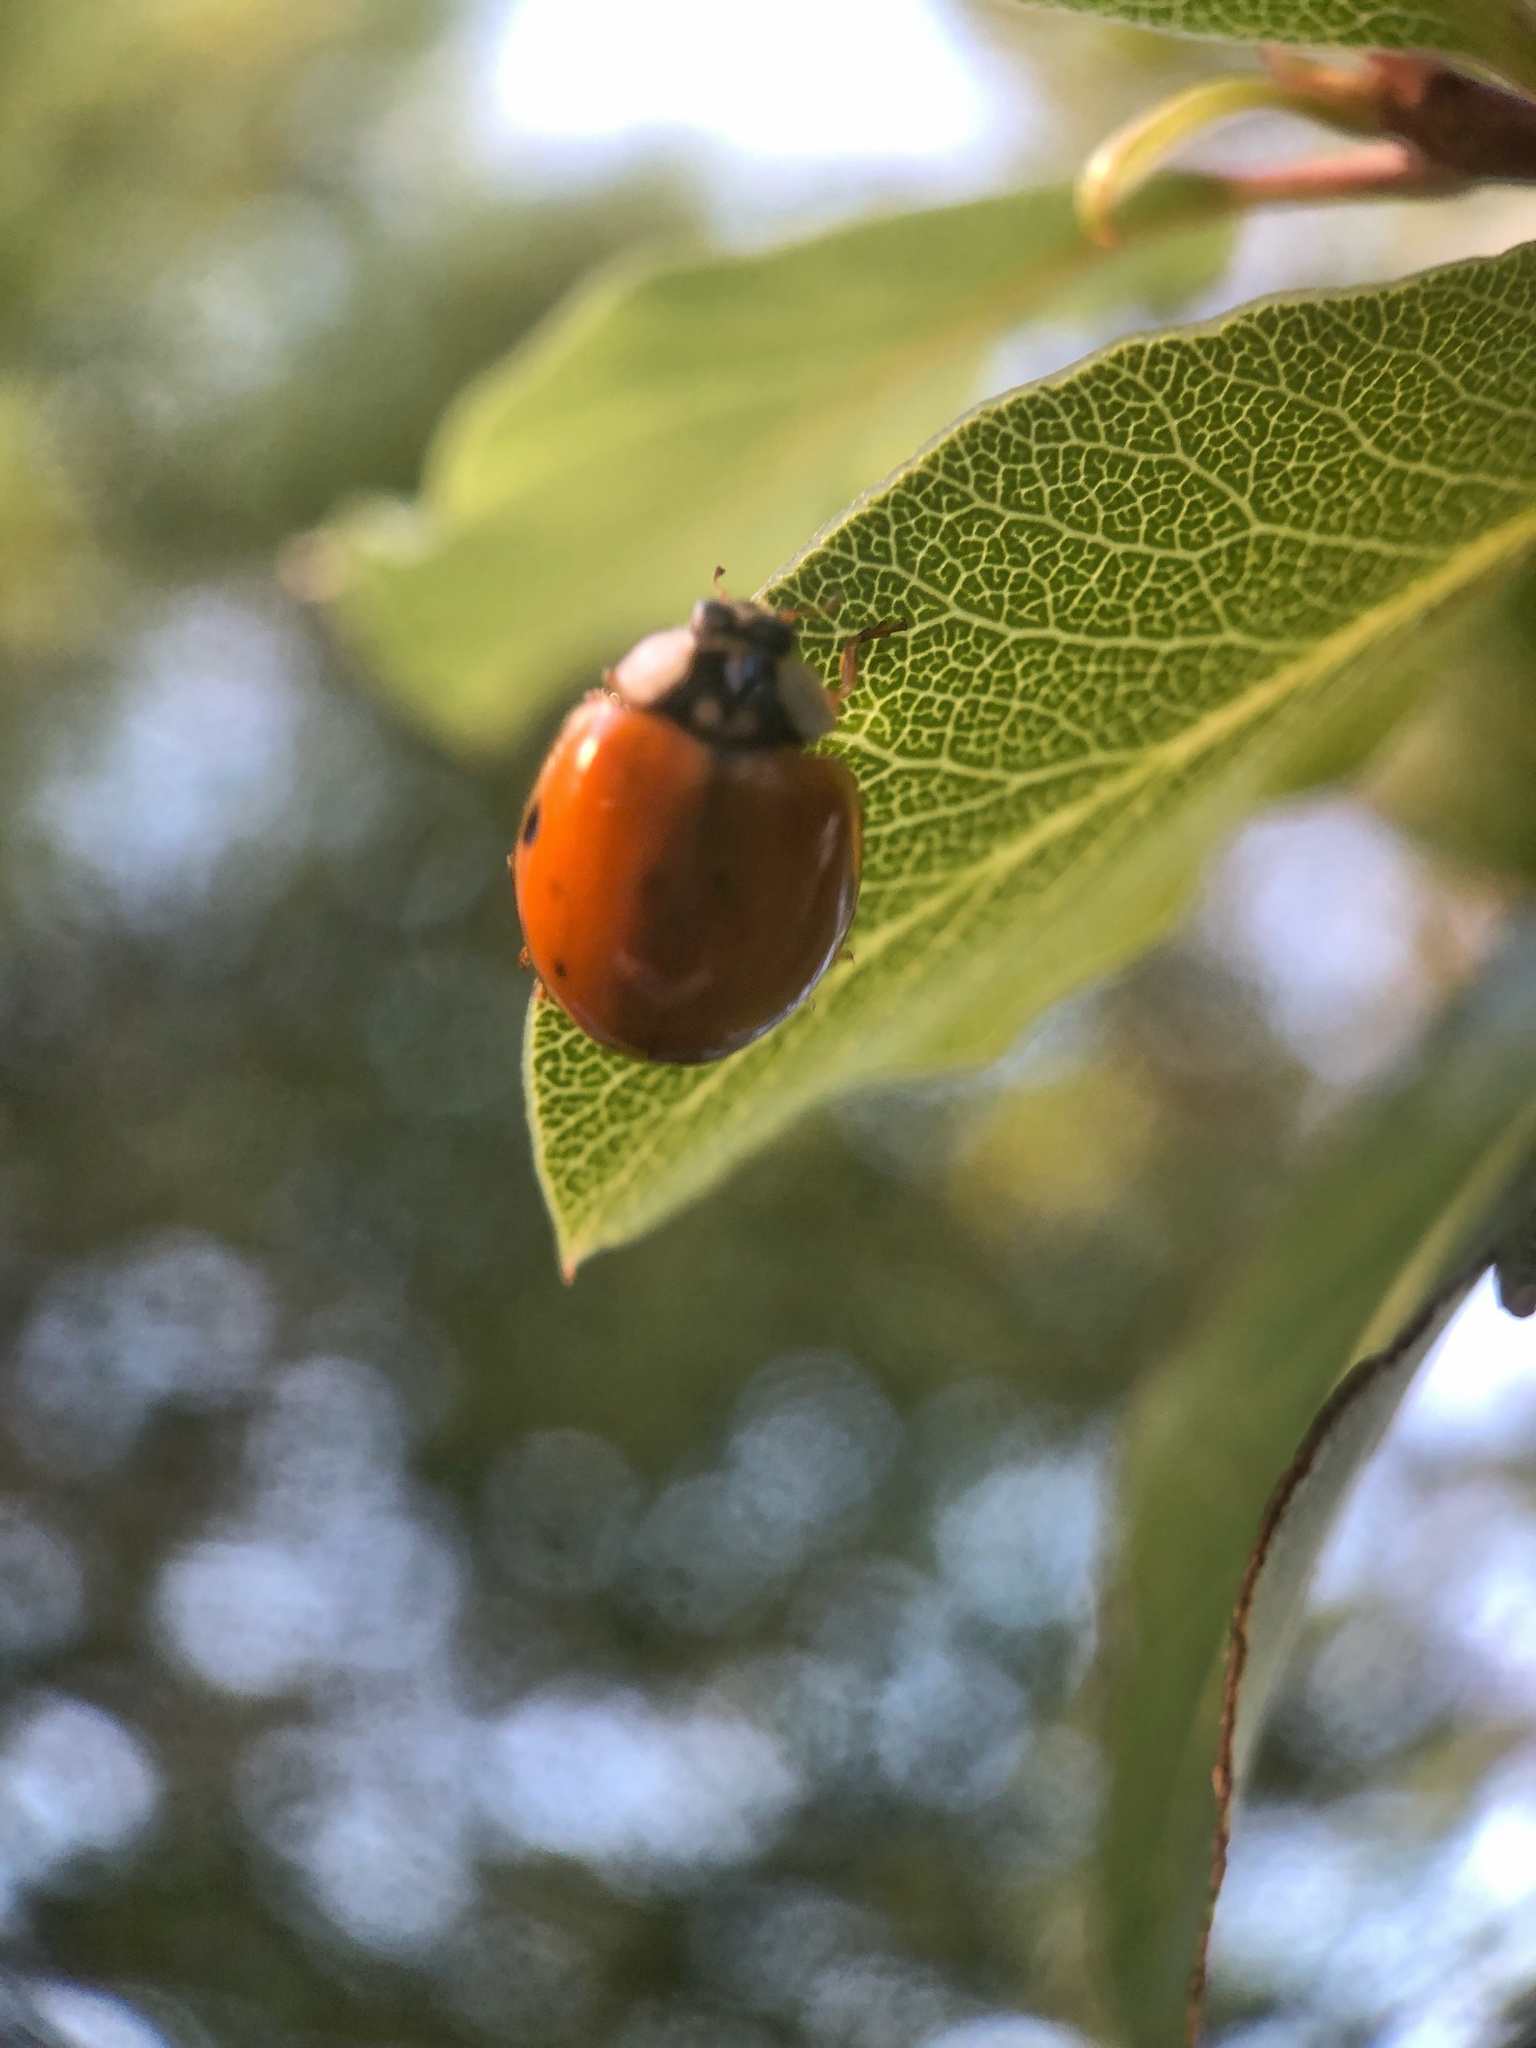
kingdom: Animalia
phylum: Arthropoda
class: Insecta
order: Coleoptera
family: Coccinellidae
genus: Harmonia
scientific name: Harmonia axyridis
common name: Harlequin ladybird
